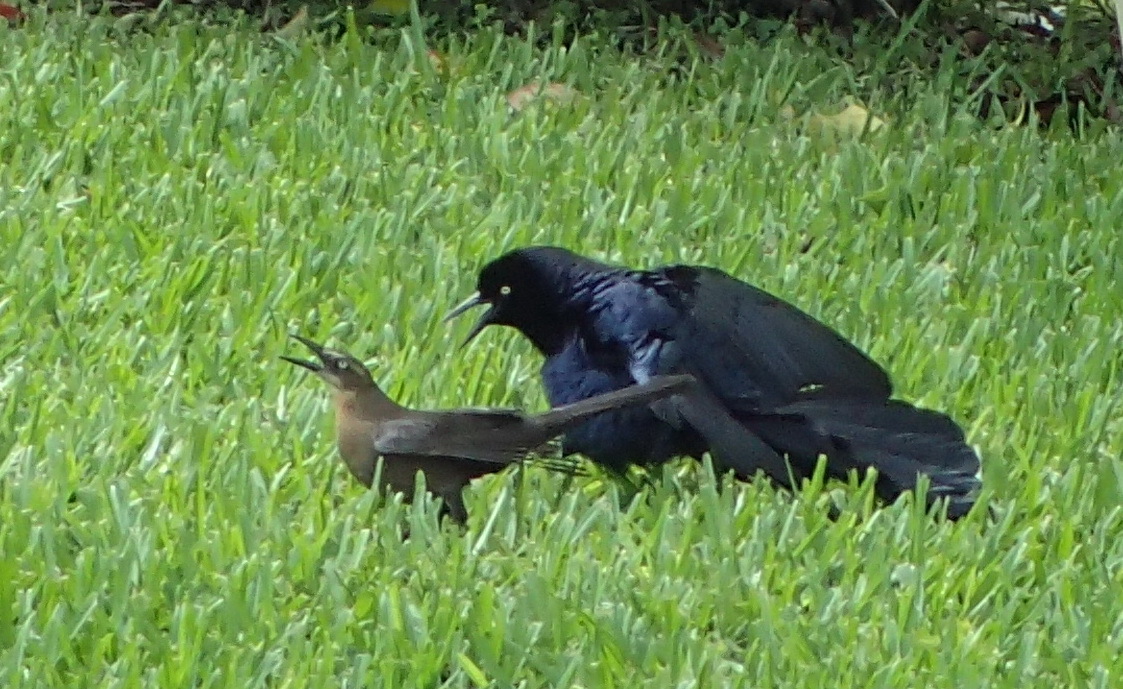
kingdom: Animalia
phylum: Chordata
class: Aves
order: Passeriformes
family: Icteridae
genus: Quiscalus
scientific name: Quiscalus mexicanus
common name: Great-tailed grackle
